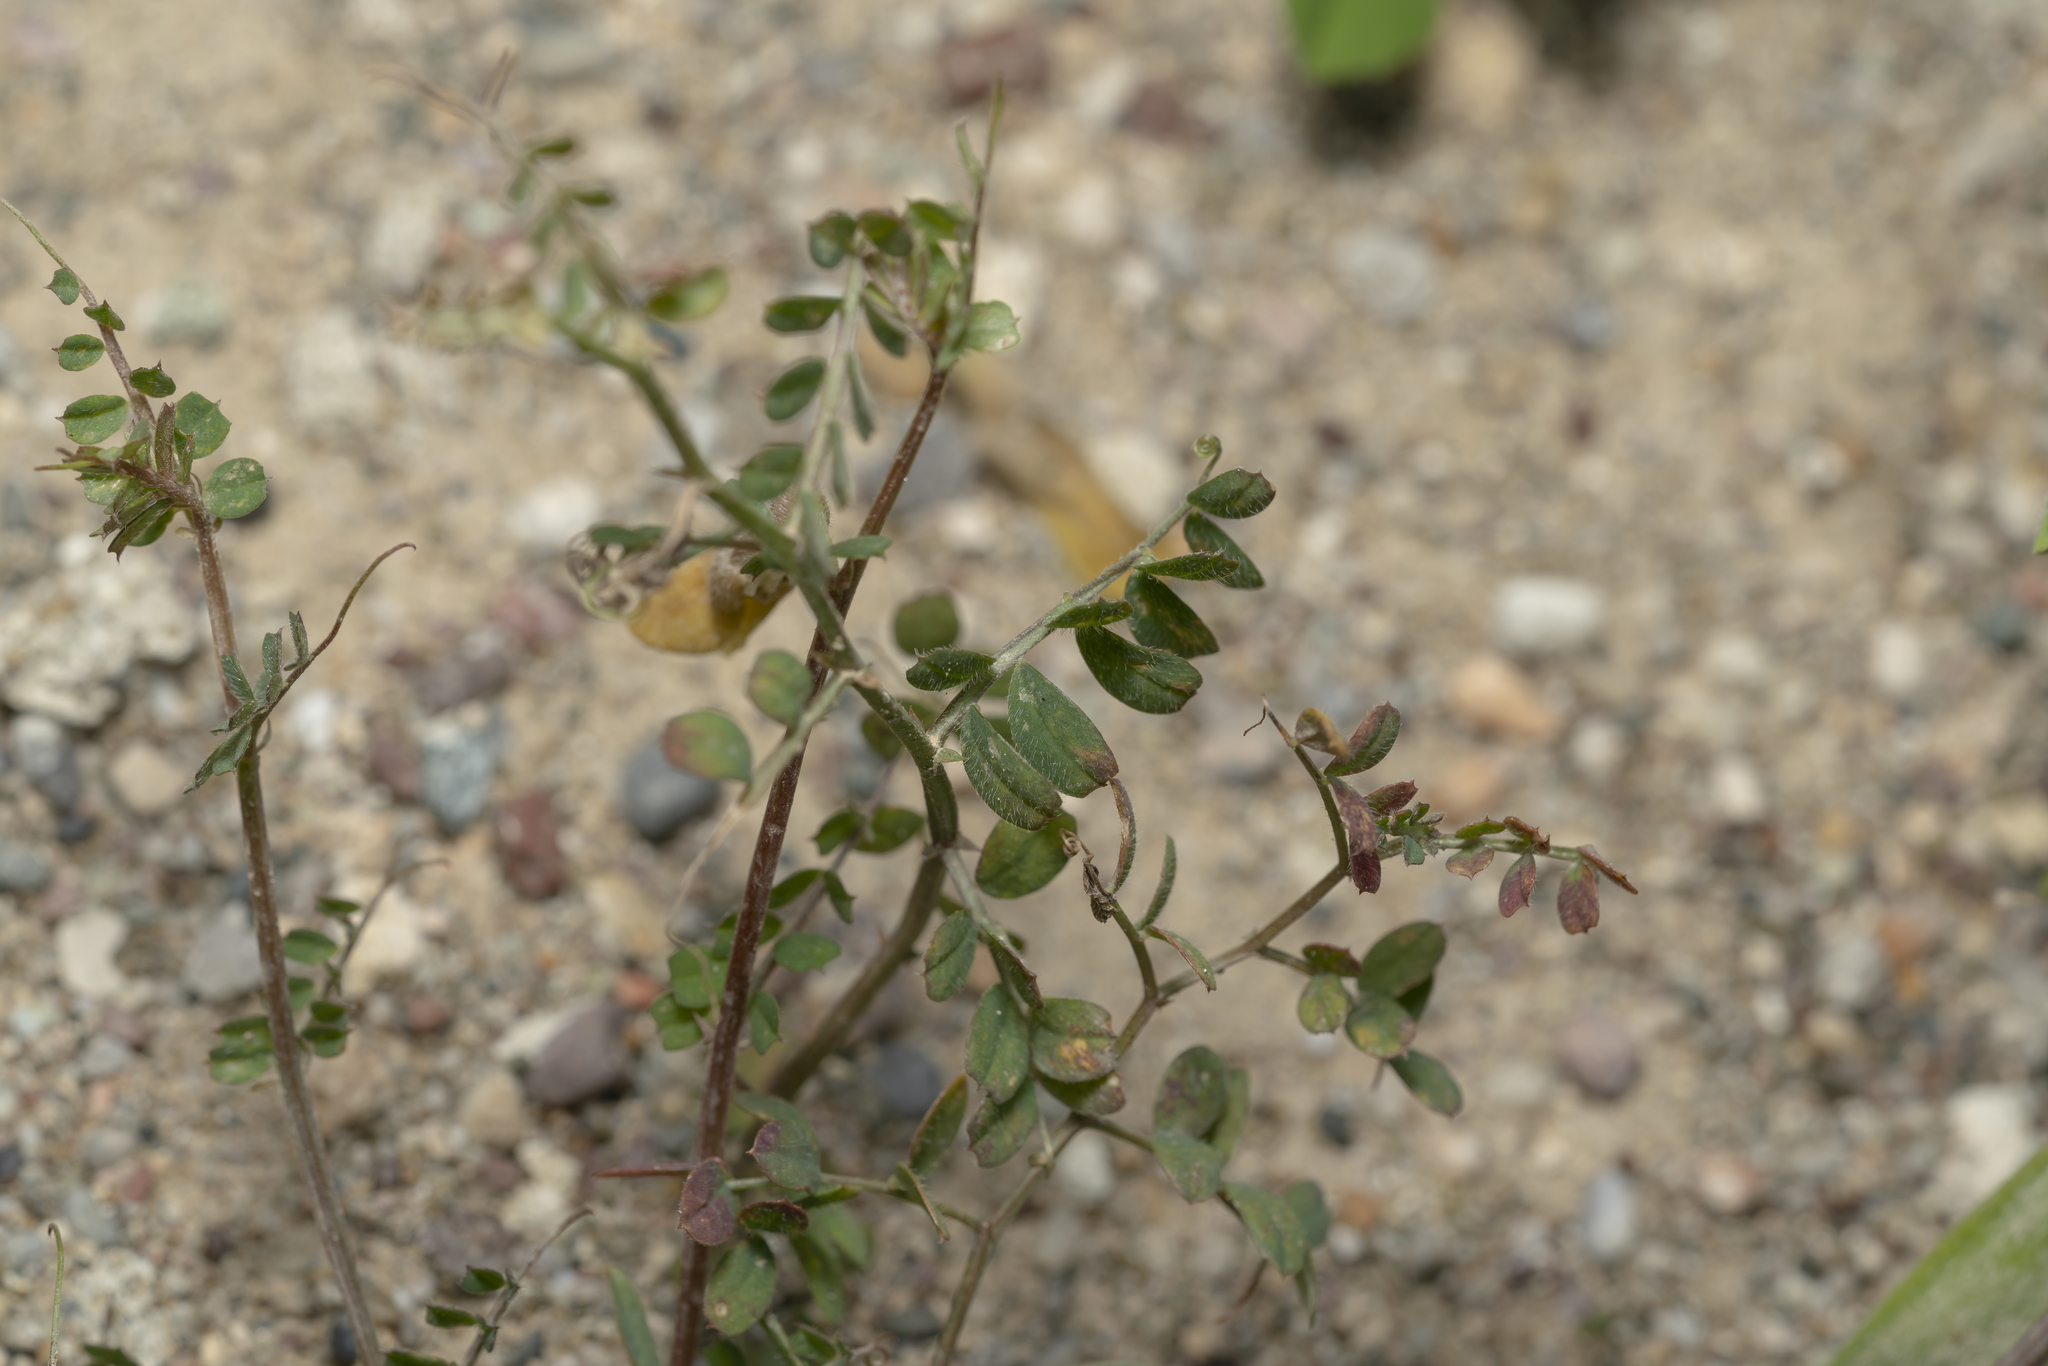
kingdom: Plantae
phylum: Tracheophyta
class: Magnoliopsida
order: Fabales
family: Fabaceae
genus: Vicia
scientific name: Vicia hybrida
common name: Hairy yellow vetch
